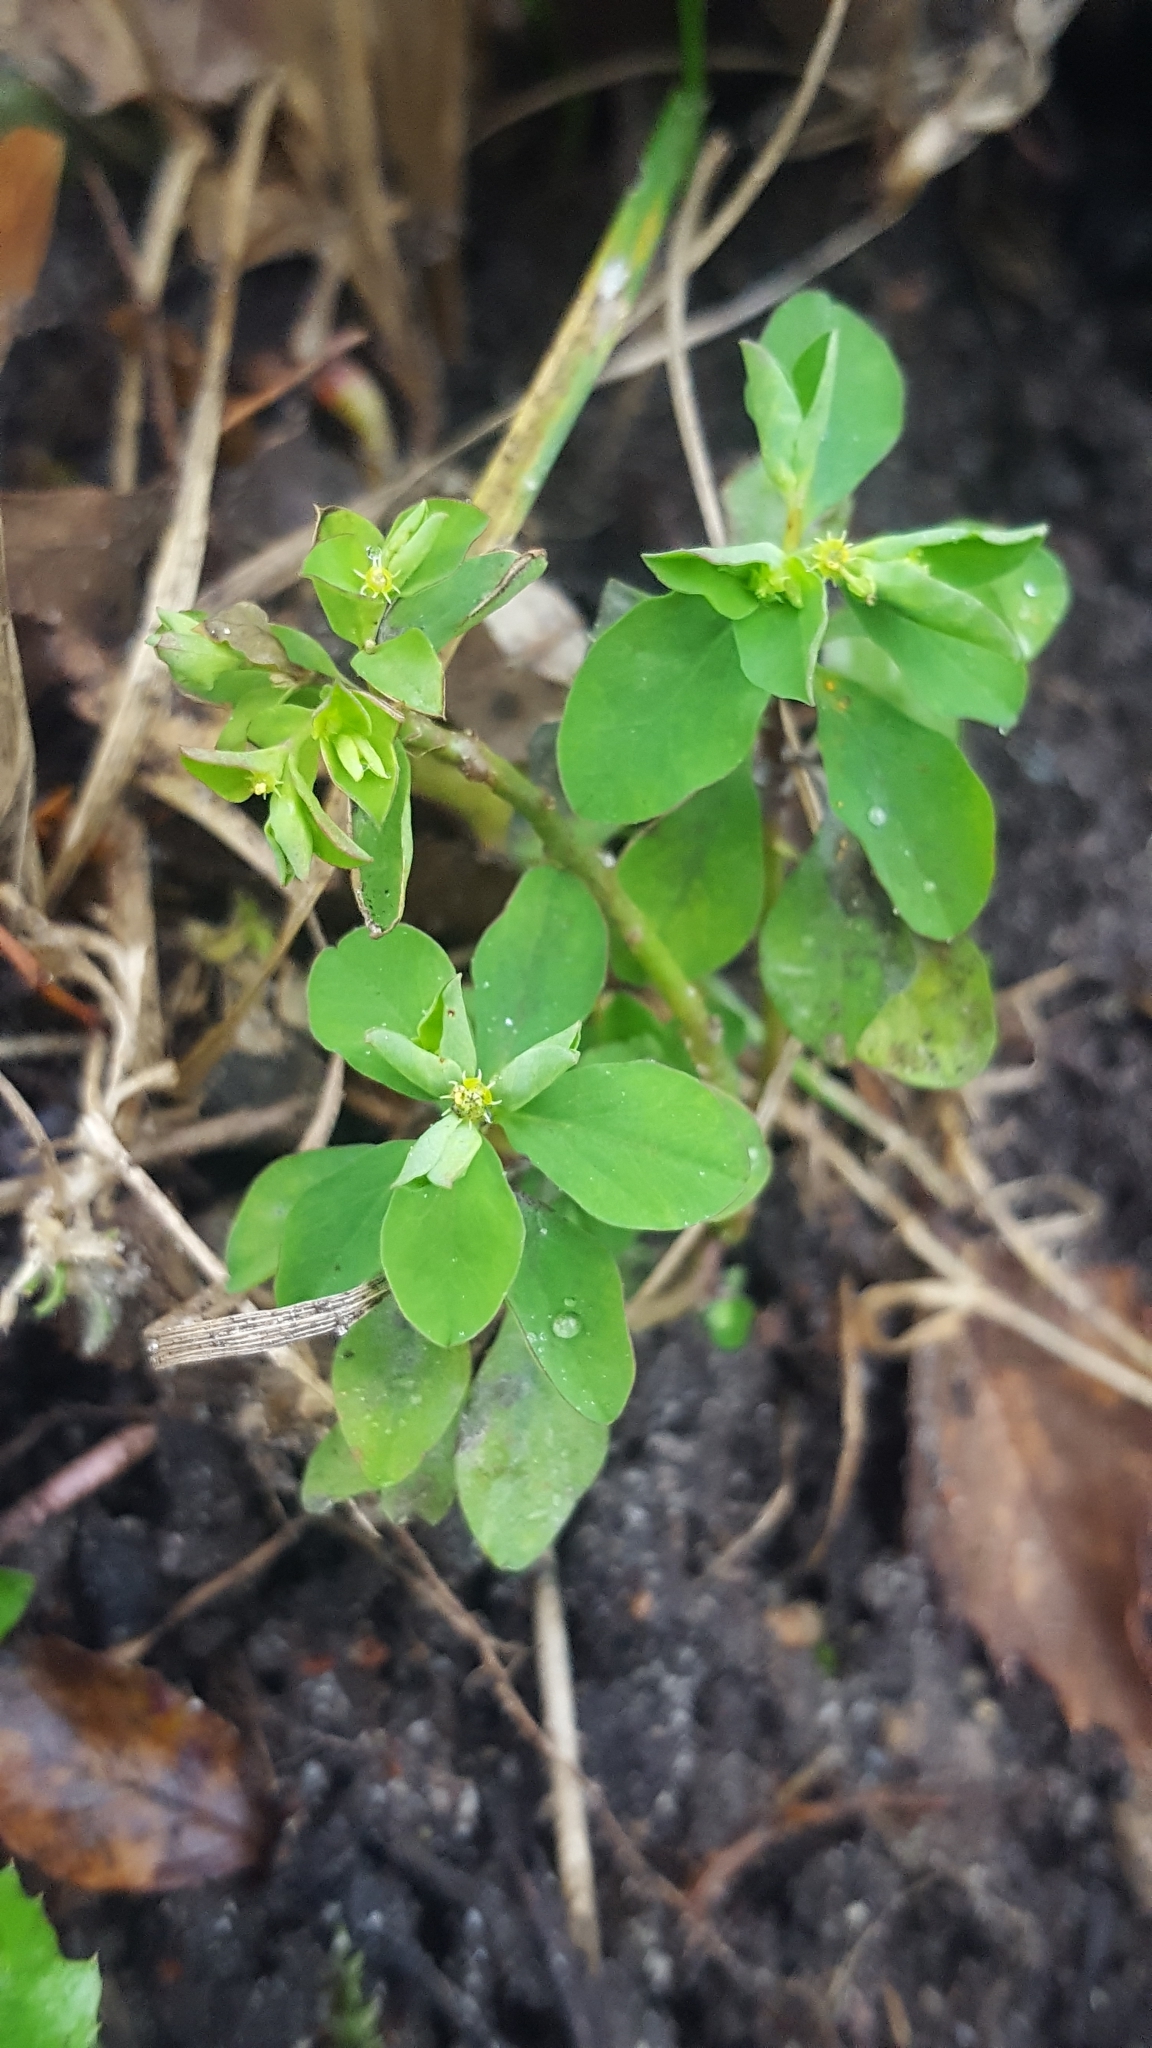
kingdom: Plantae
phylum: Tracheophyta
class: Magnoliopsida
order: Malpighiales
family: Euphorbiaceae
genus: Euphorbia
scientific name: Euphorbia peplus
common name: Petty spurge
